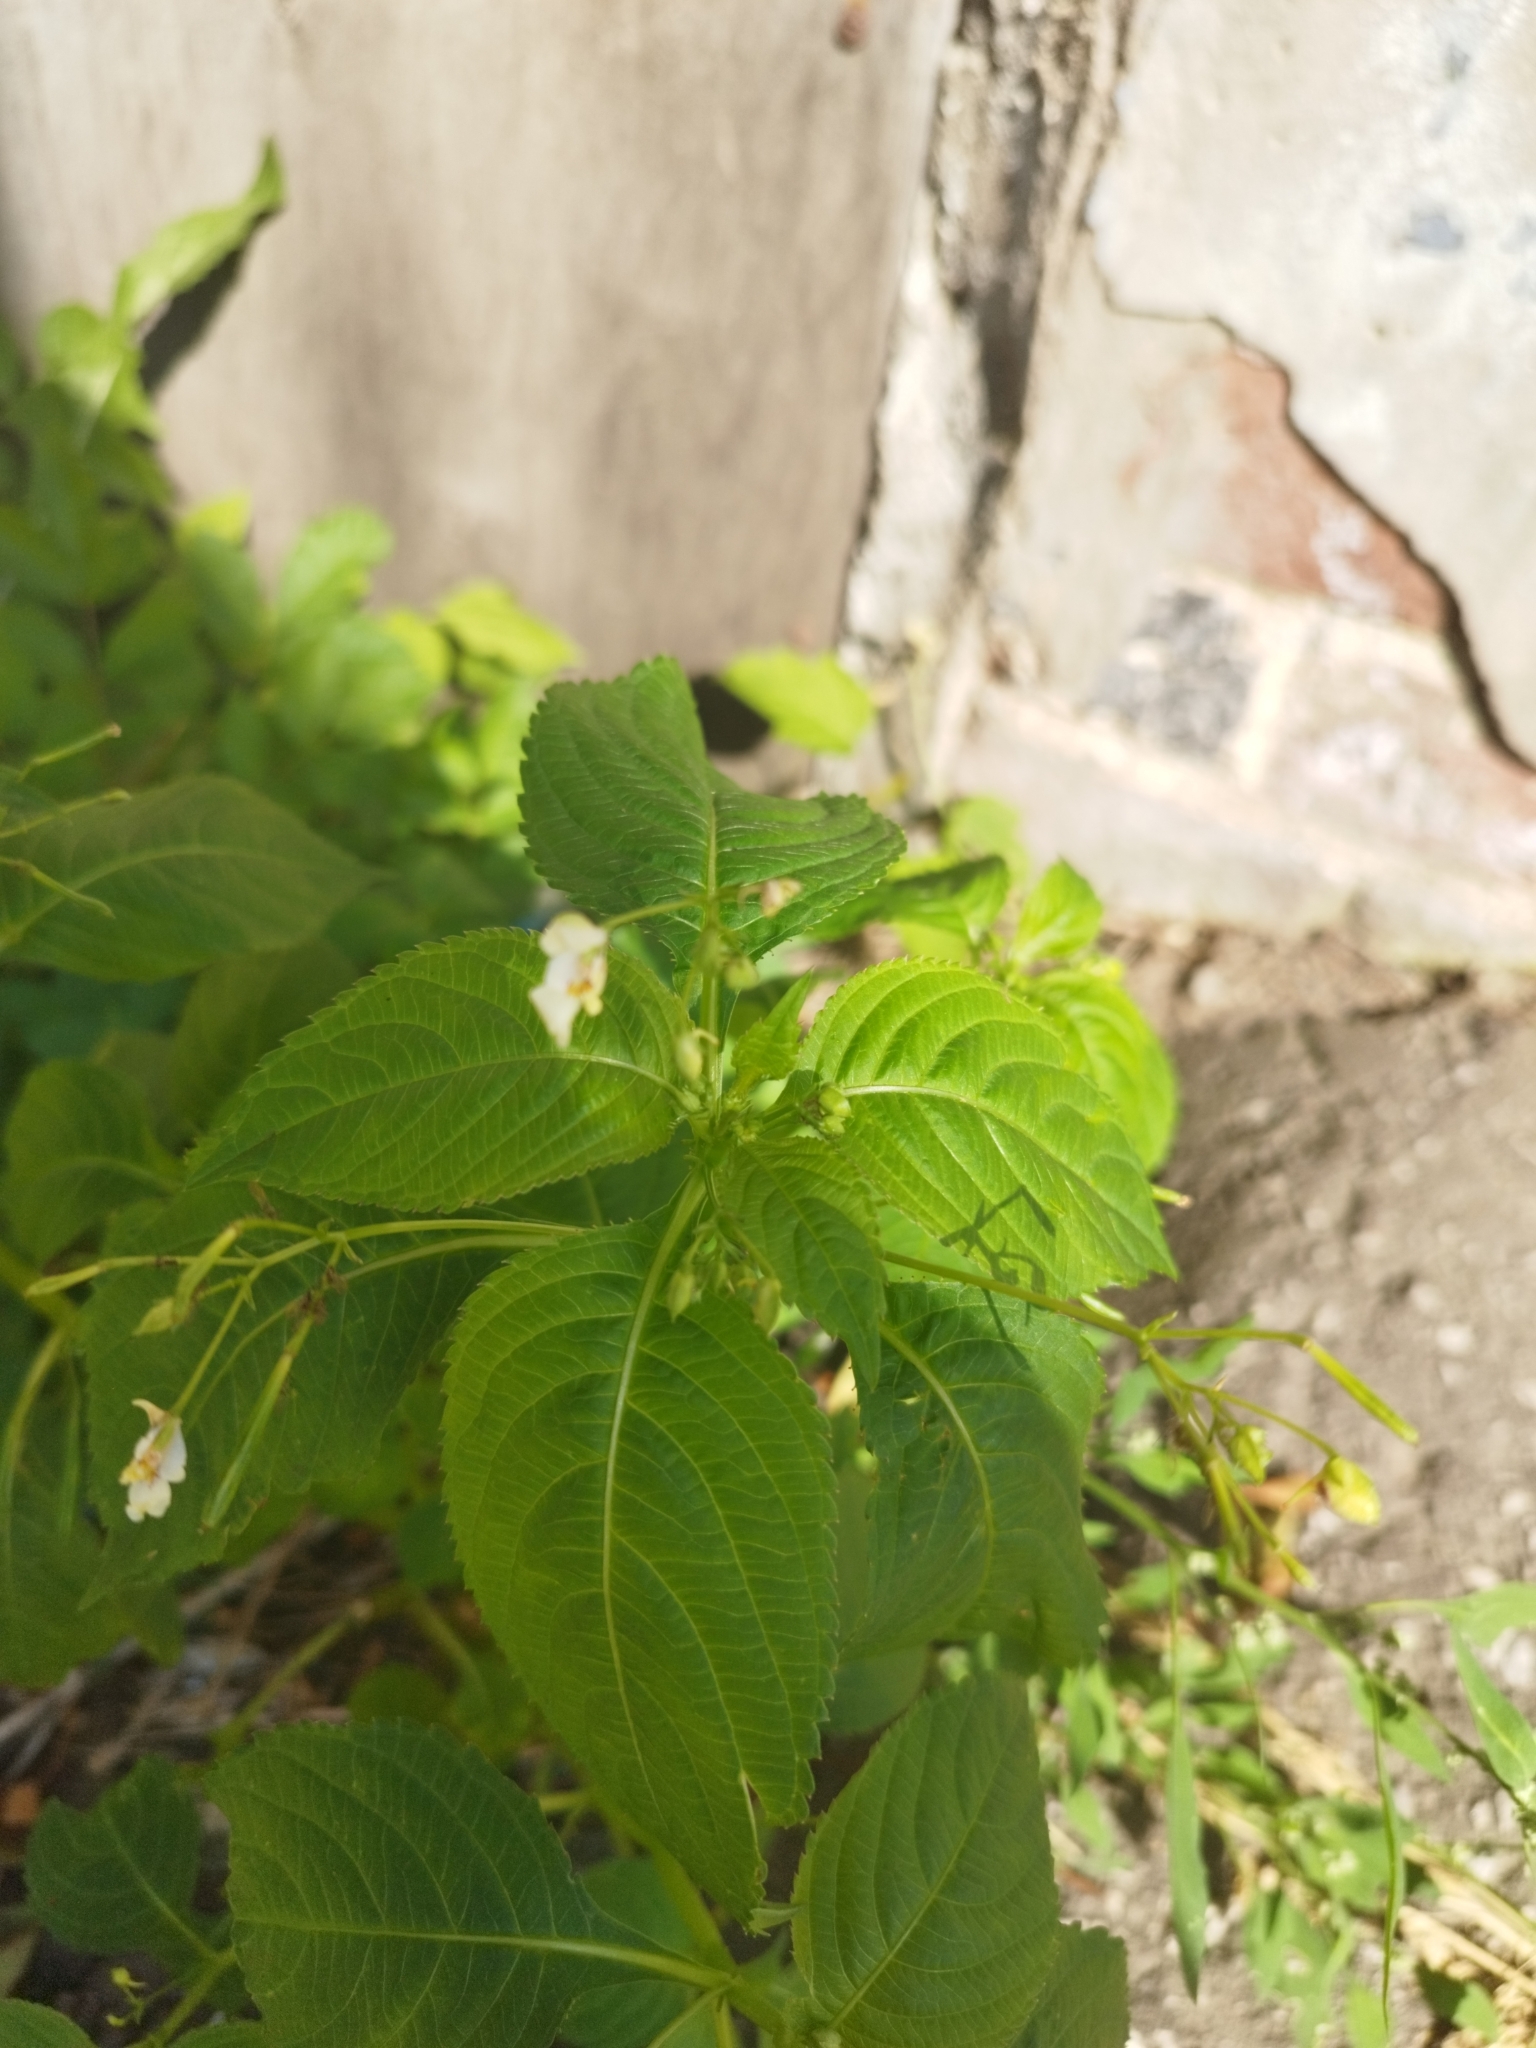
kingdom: Plantae
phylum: Tracheophyta
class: Magnoliopsida
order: Ericales
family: Balsaminaceae
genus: Impatiens
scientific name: Impatiens parviflora
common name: Small balsam
